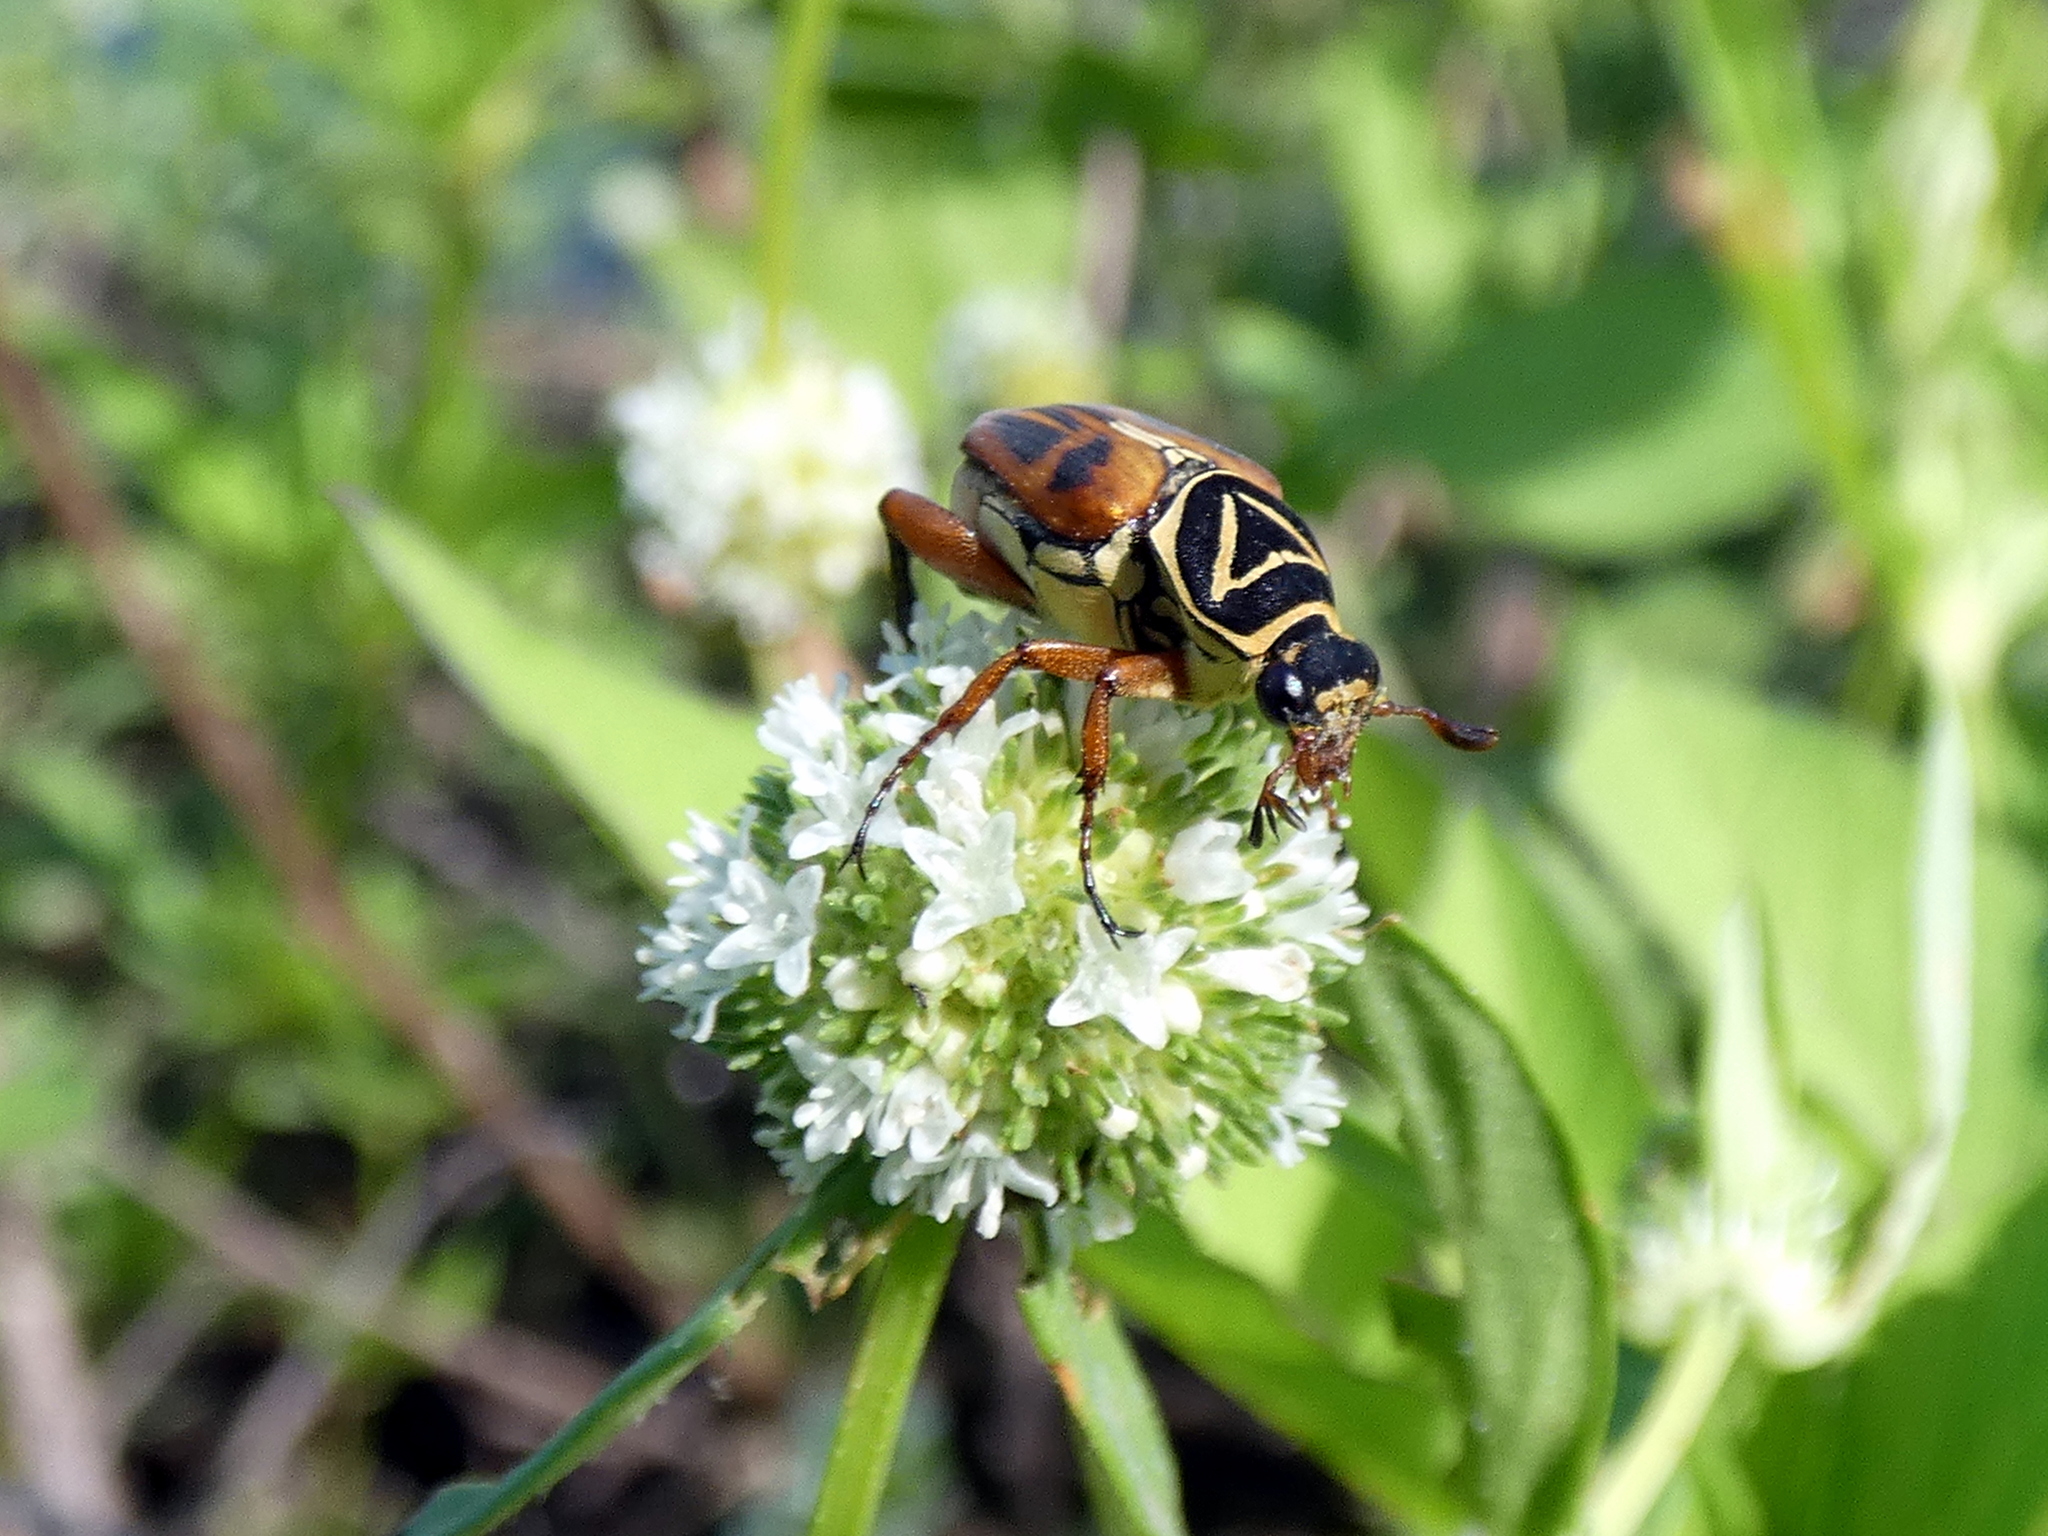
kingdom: Animalia
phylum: Arthropoda
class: Insecta
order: Coleoptera
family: Scarabaeidae
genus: Trigonopeltastes
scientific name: Trigonopeltastes delta
